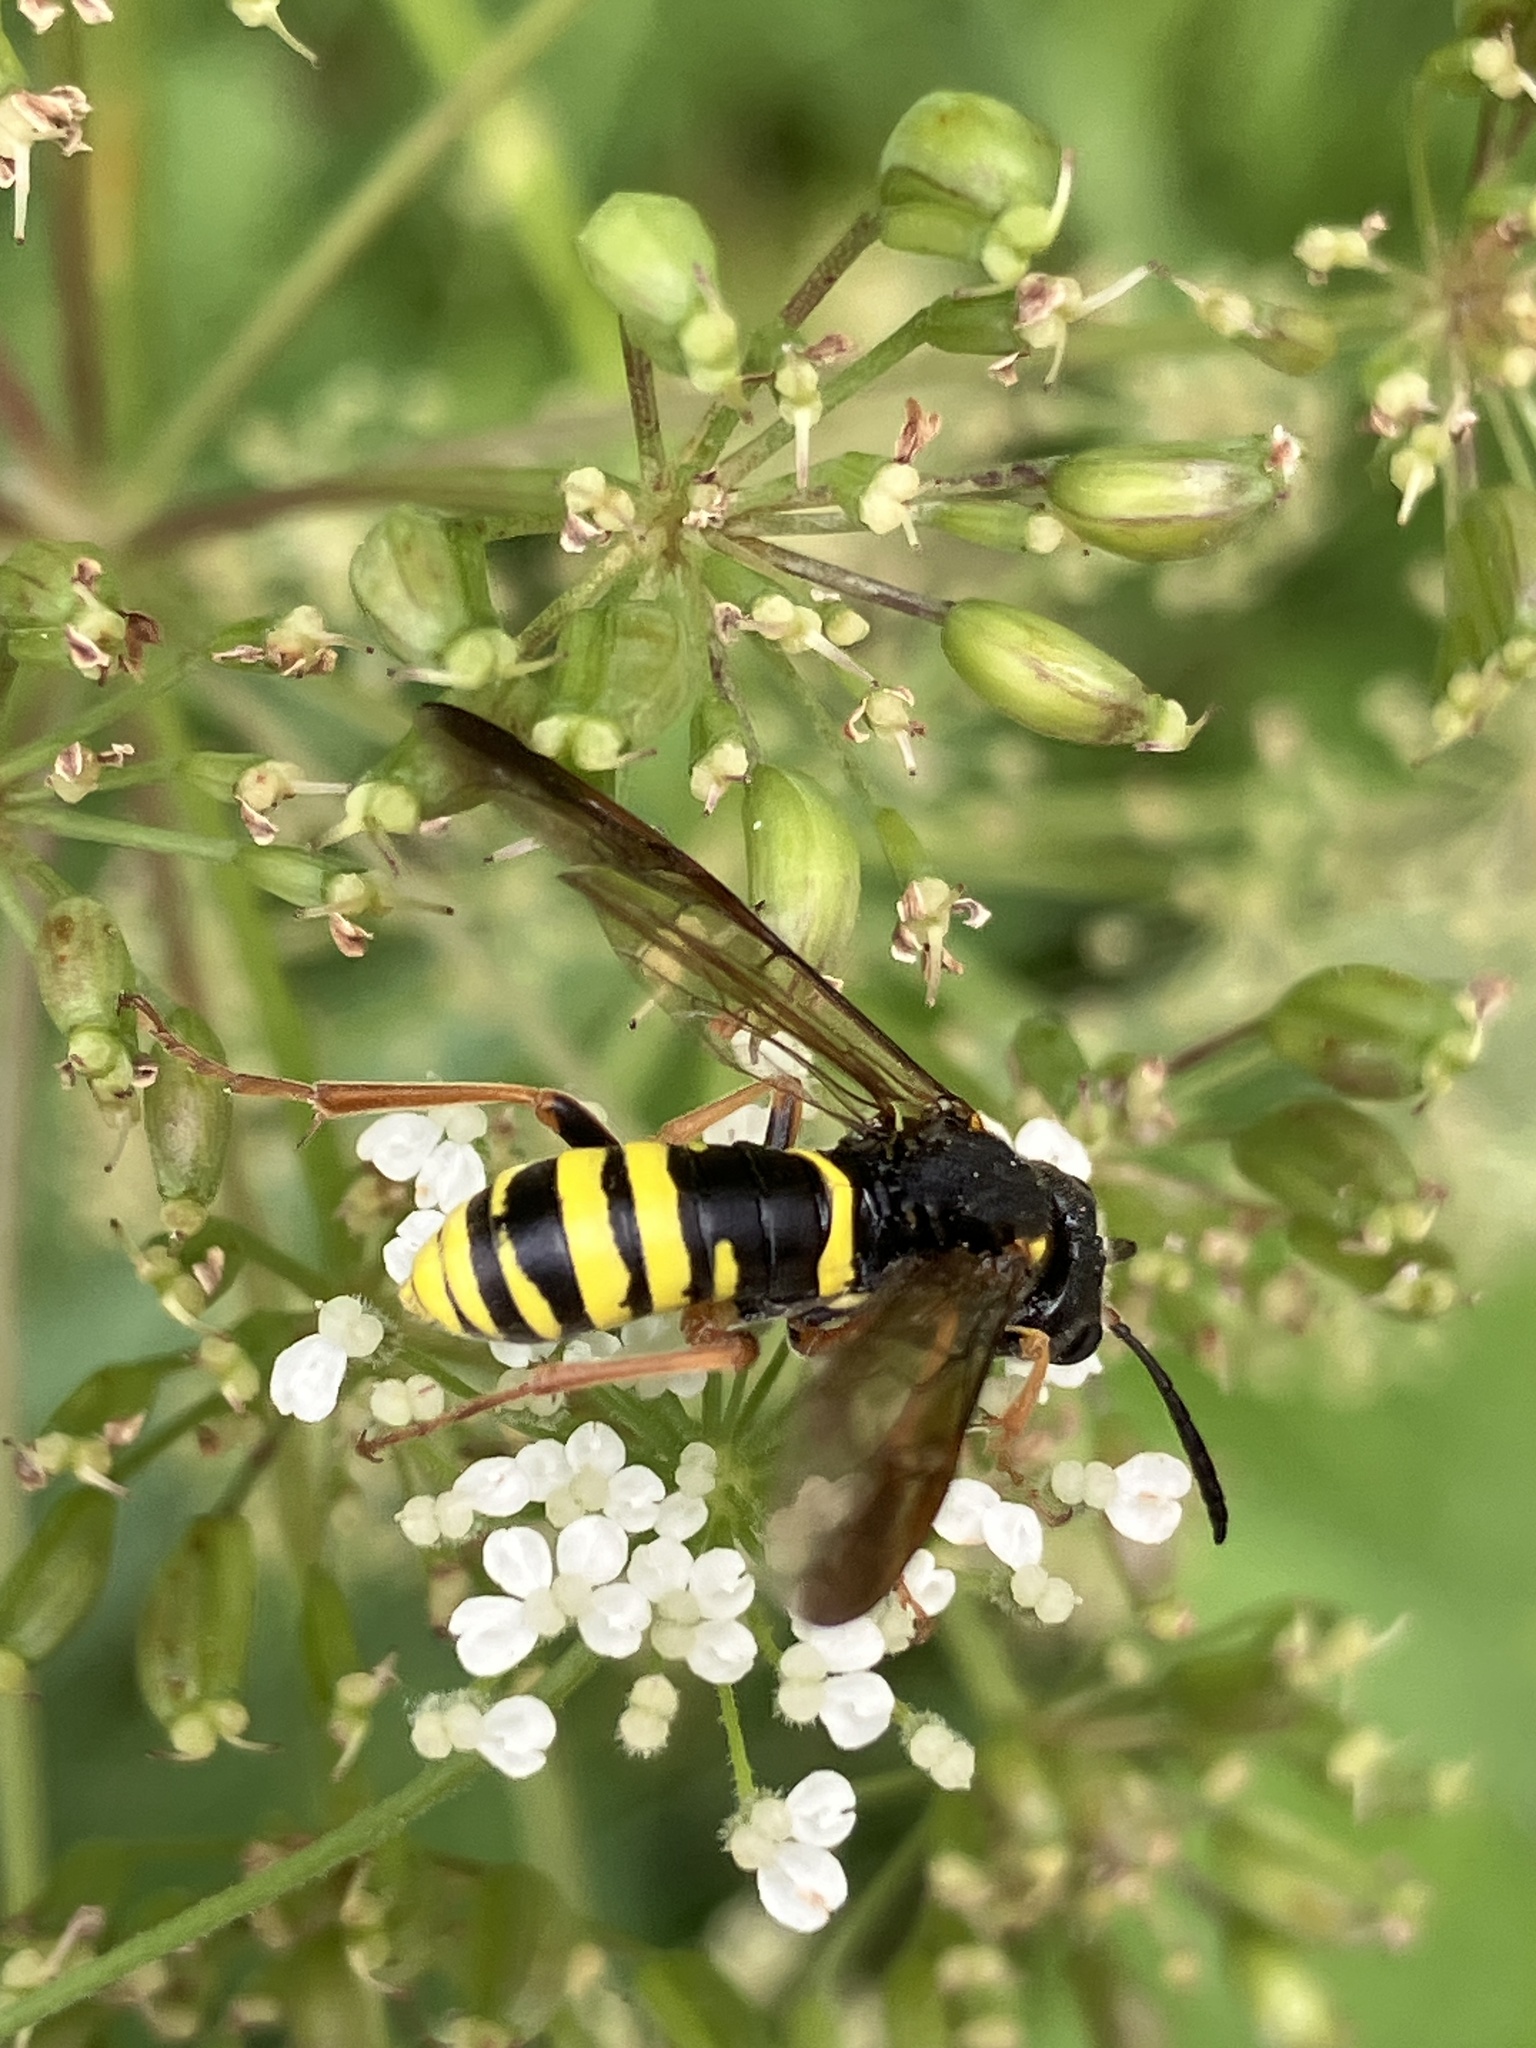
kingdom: Animalia
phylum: Arthropoda
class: Insecta
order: Hymenoptera
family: Tenthredinidae
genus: Tenthredo
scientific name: Tenthredo vespa
